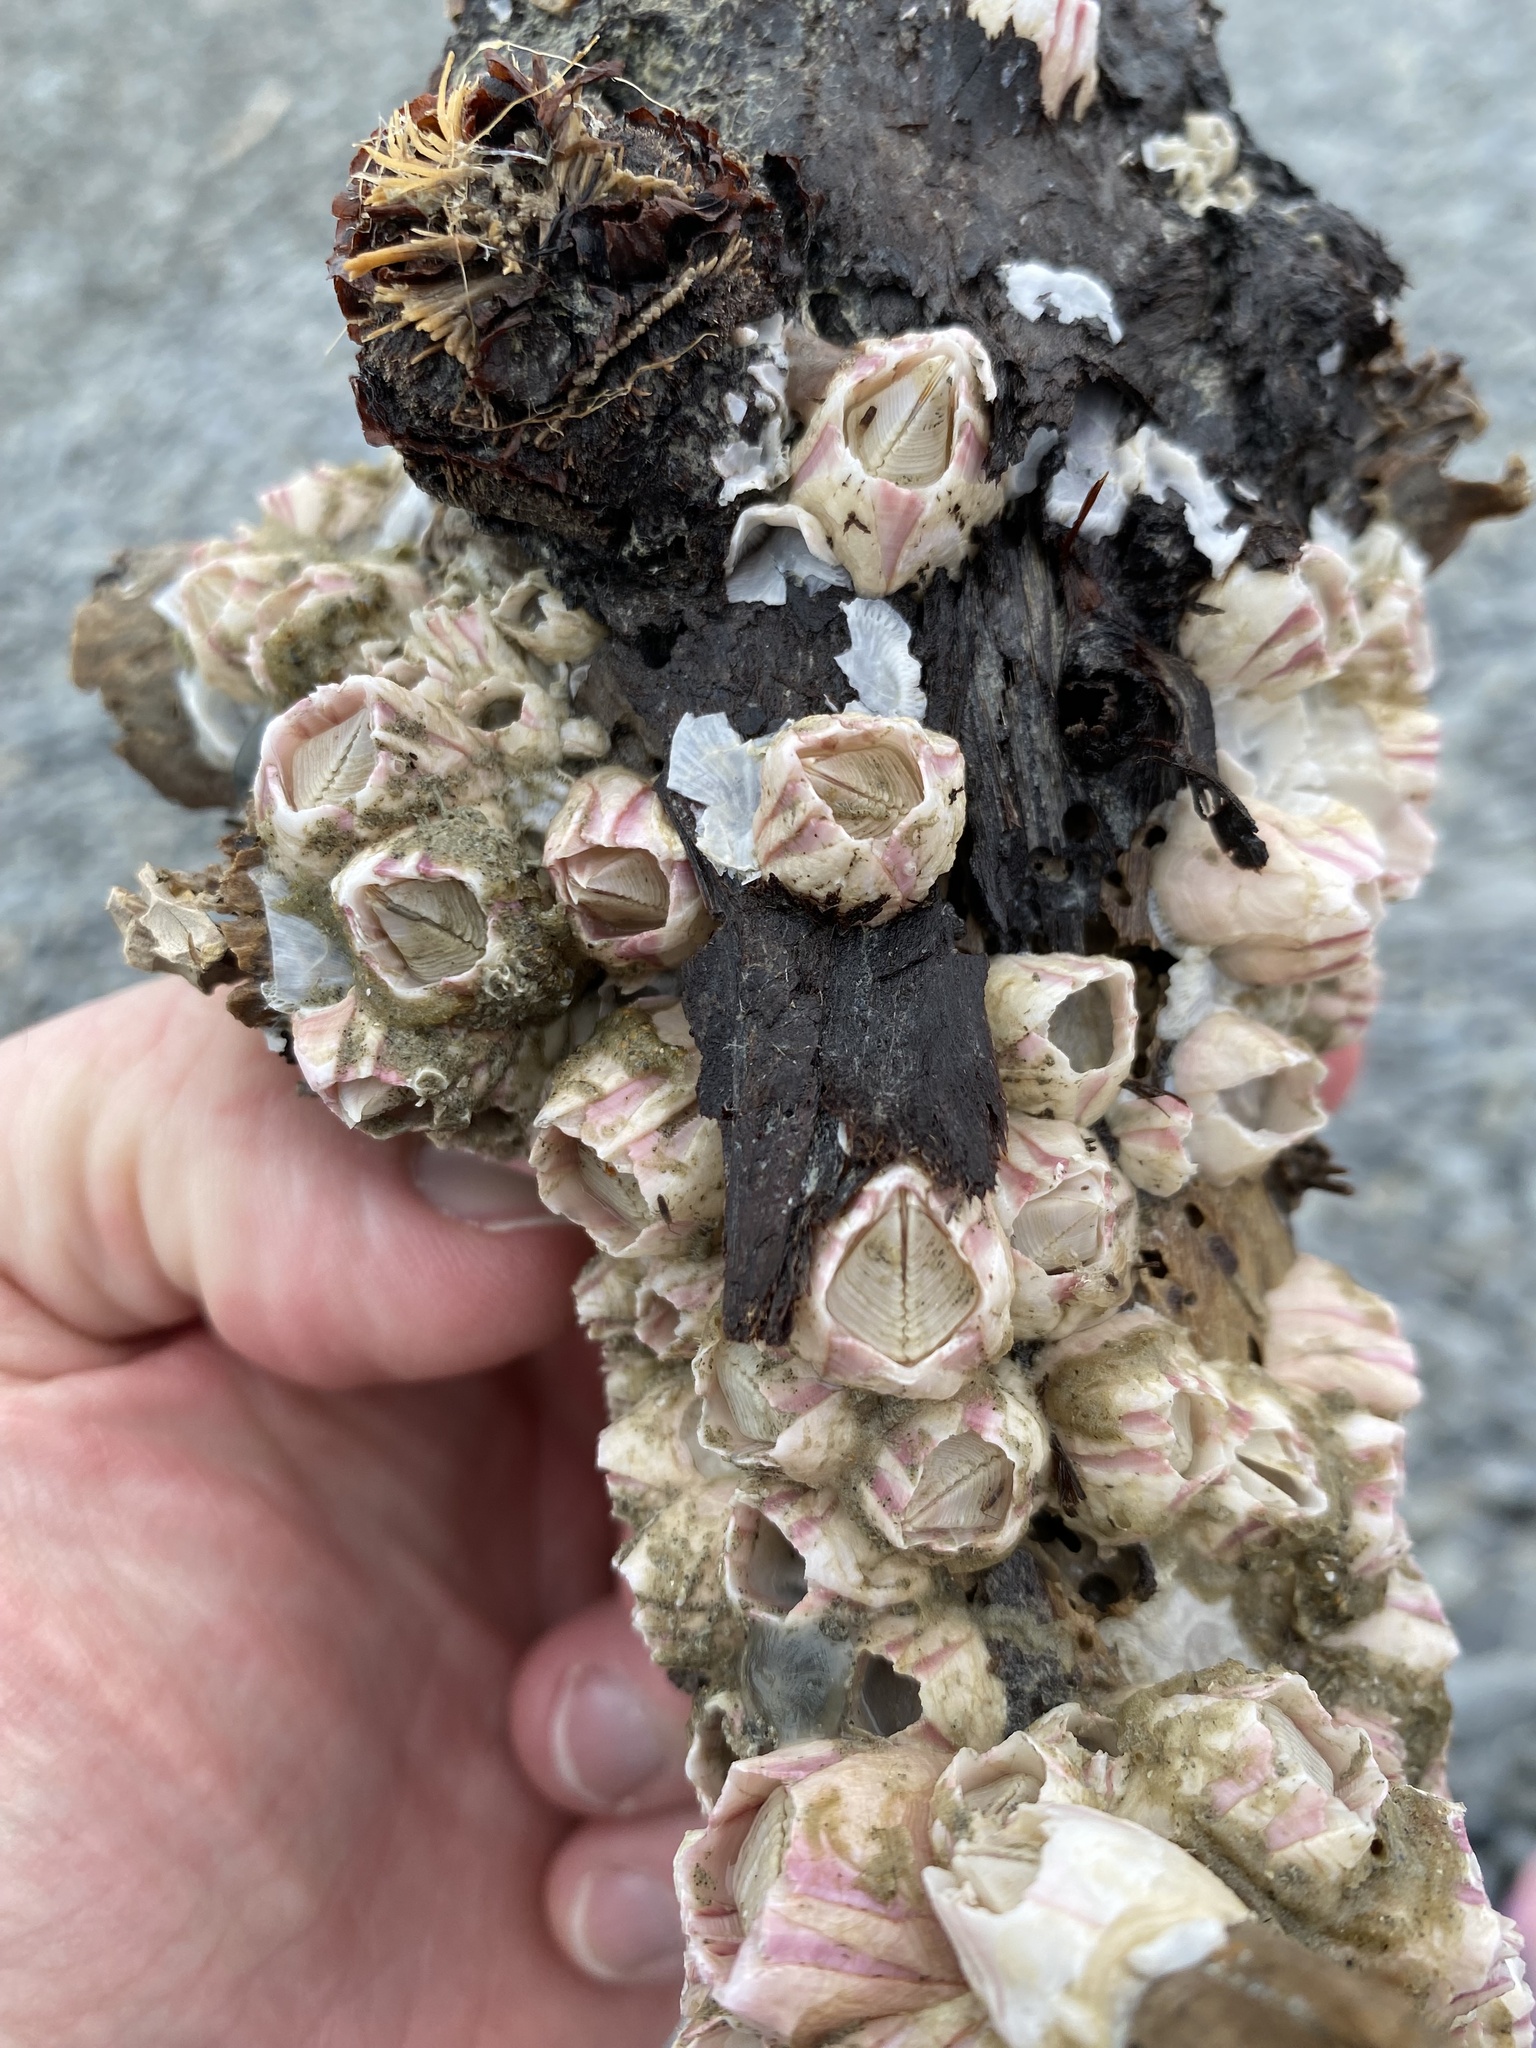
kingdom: Animalia
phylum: Arthropoda
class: Maxillopoda
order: Sessilia
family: Balanidae
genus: Notomegabalanus
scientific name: Notomegabalanus decorus
